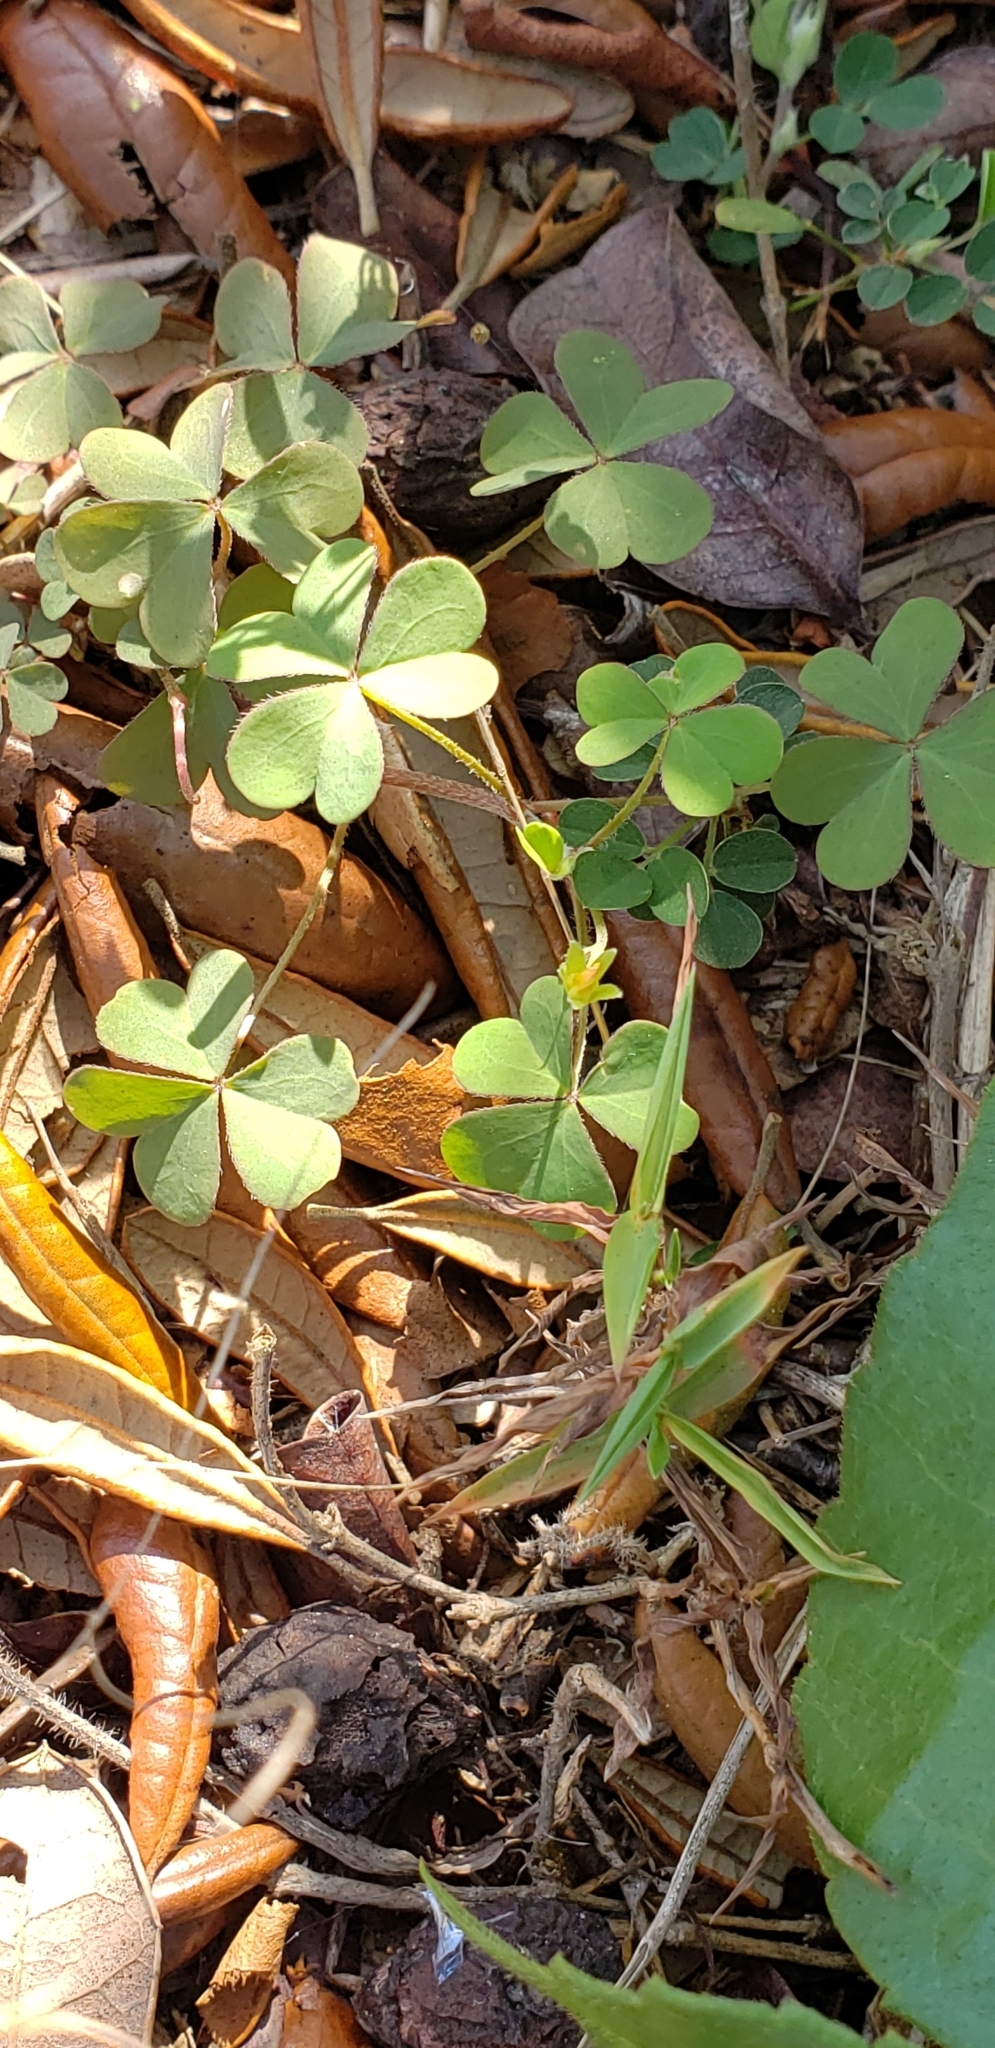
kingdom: Plantae
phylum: Tracheophyta
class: Magnoliopsida
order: Oxalidales
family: Oxalidaceae
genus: Oxalis
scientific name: Oxalis corniculata
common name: Procumbent yellow-sorrel
